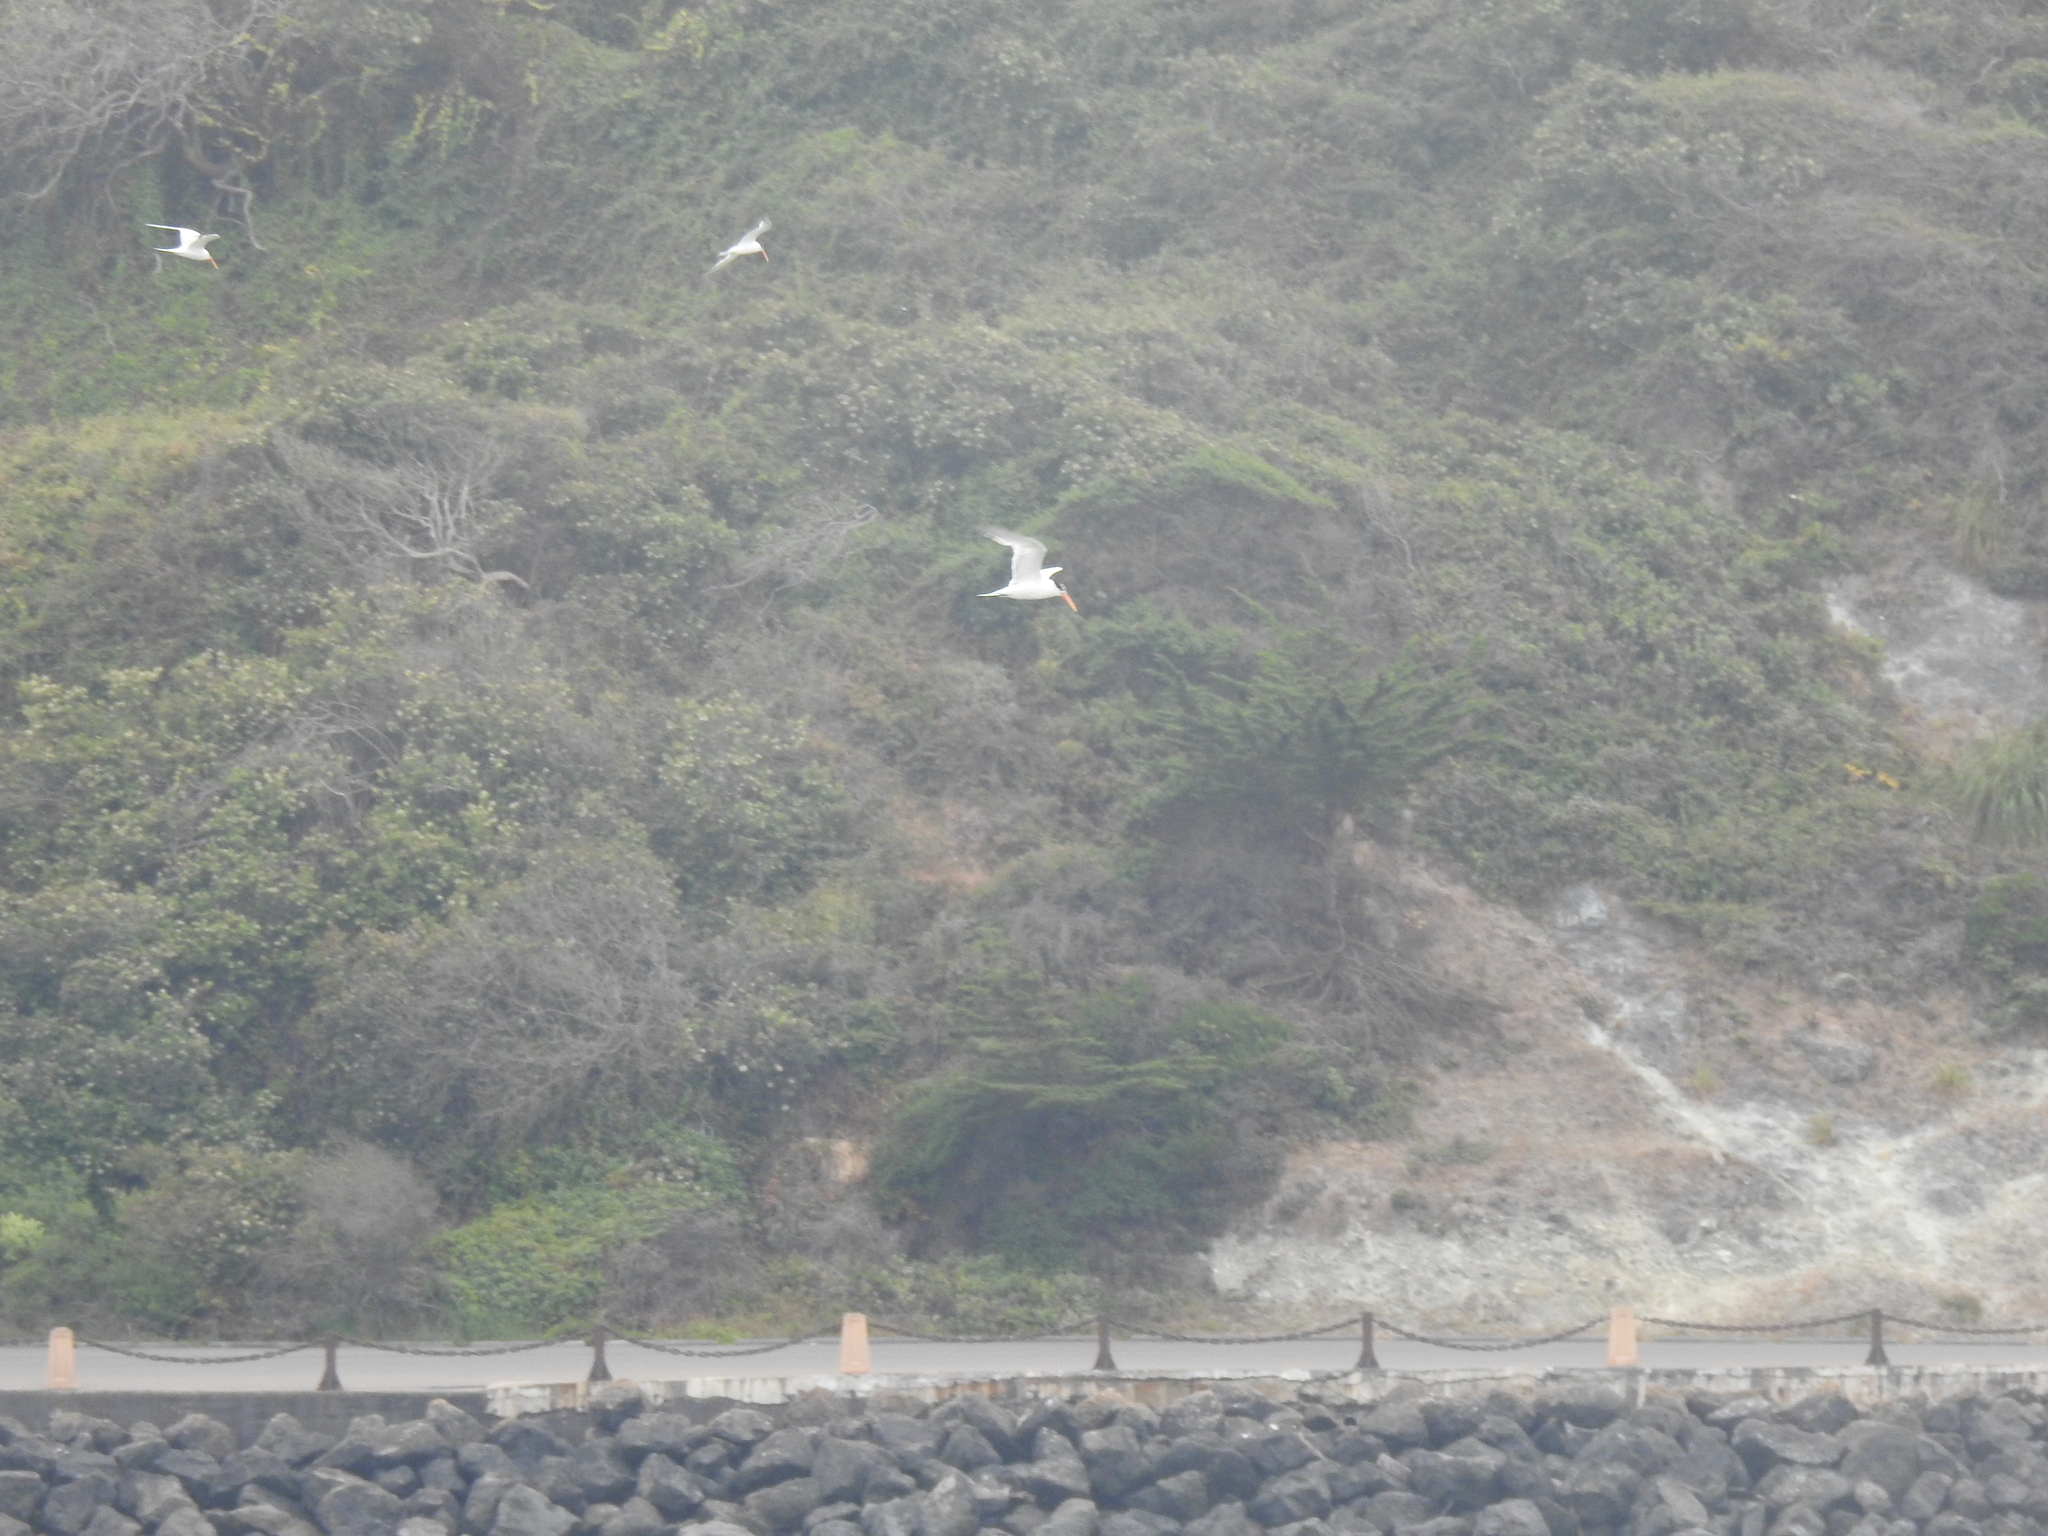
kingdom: Animalia
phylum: Chordata
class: Aves
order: Charadriiformes
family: Laridae
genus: Thalasseus
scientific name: Thalasseus elegans
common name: Elegant tern
